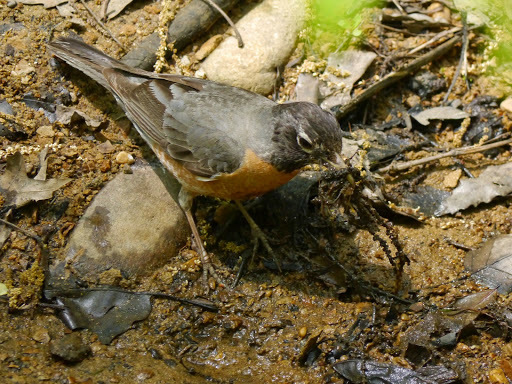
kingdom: Animalia
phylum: Chordata
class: Aves
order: Passeriformes
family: Turdidae
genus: Turdus
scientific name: Turdus migratorius
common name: American robin
